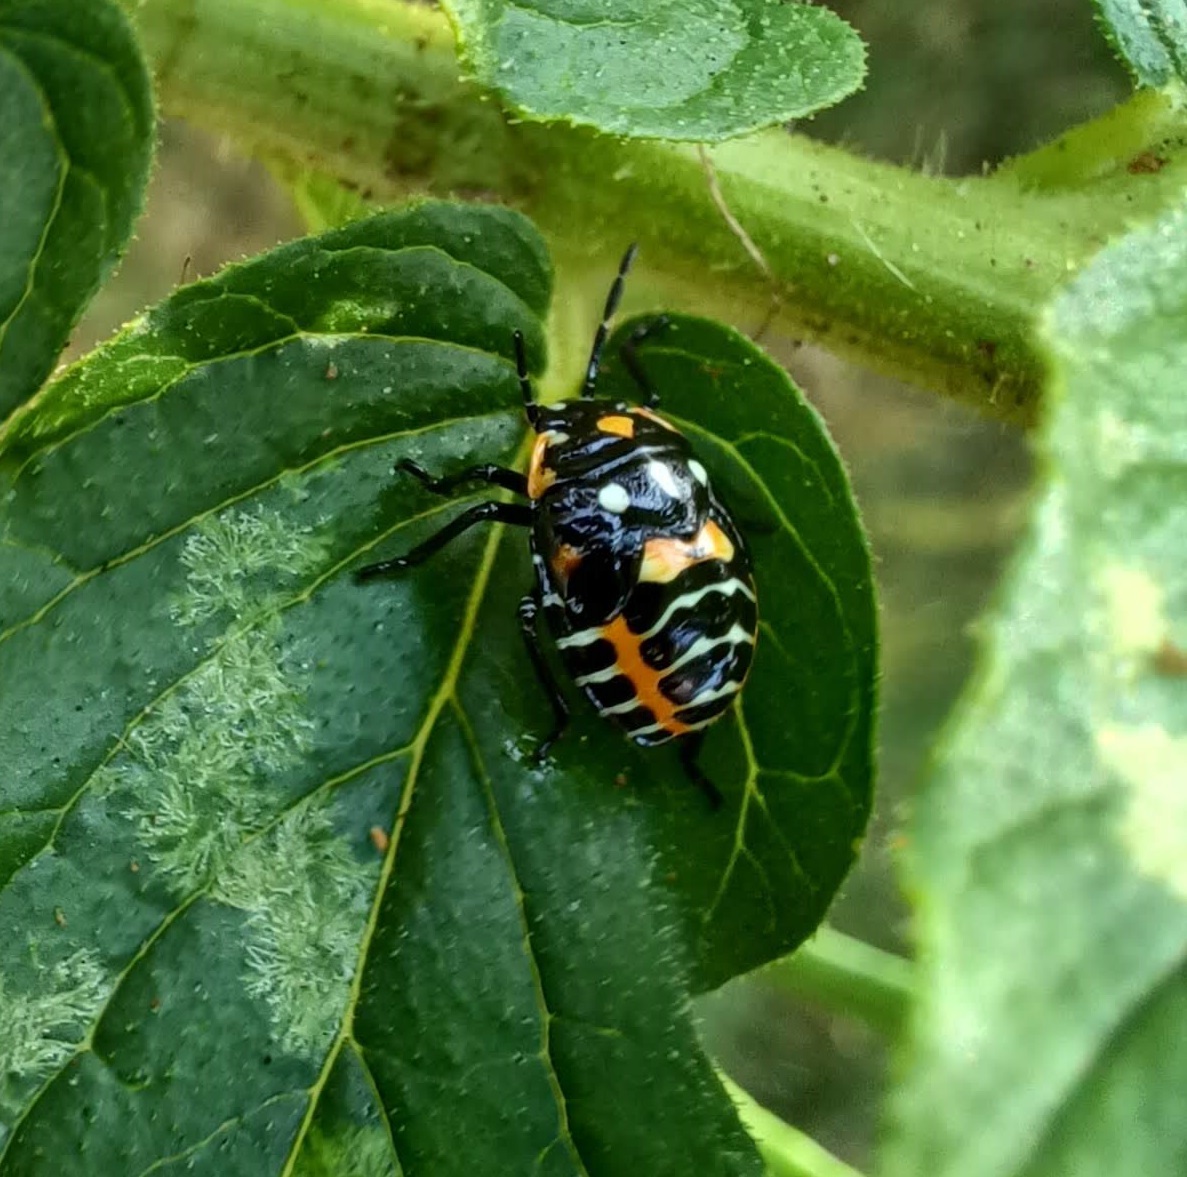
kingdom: Animalia
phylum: Arthropoda
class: Insecta
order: Hemiptera
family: Pentatomidae
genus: Murgantia
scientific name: Murgantia histrionica
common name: Harlequin bug
